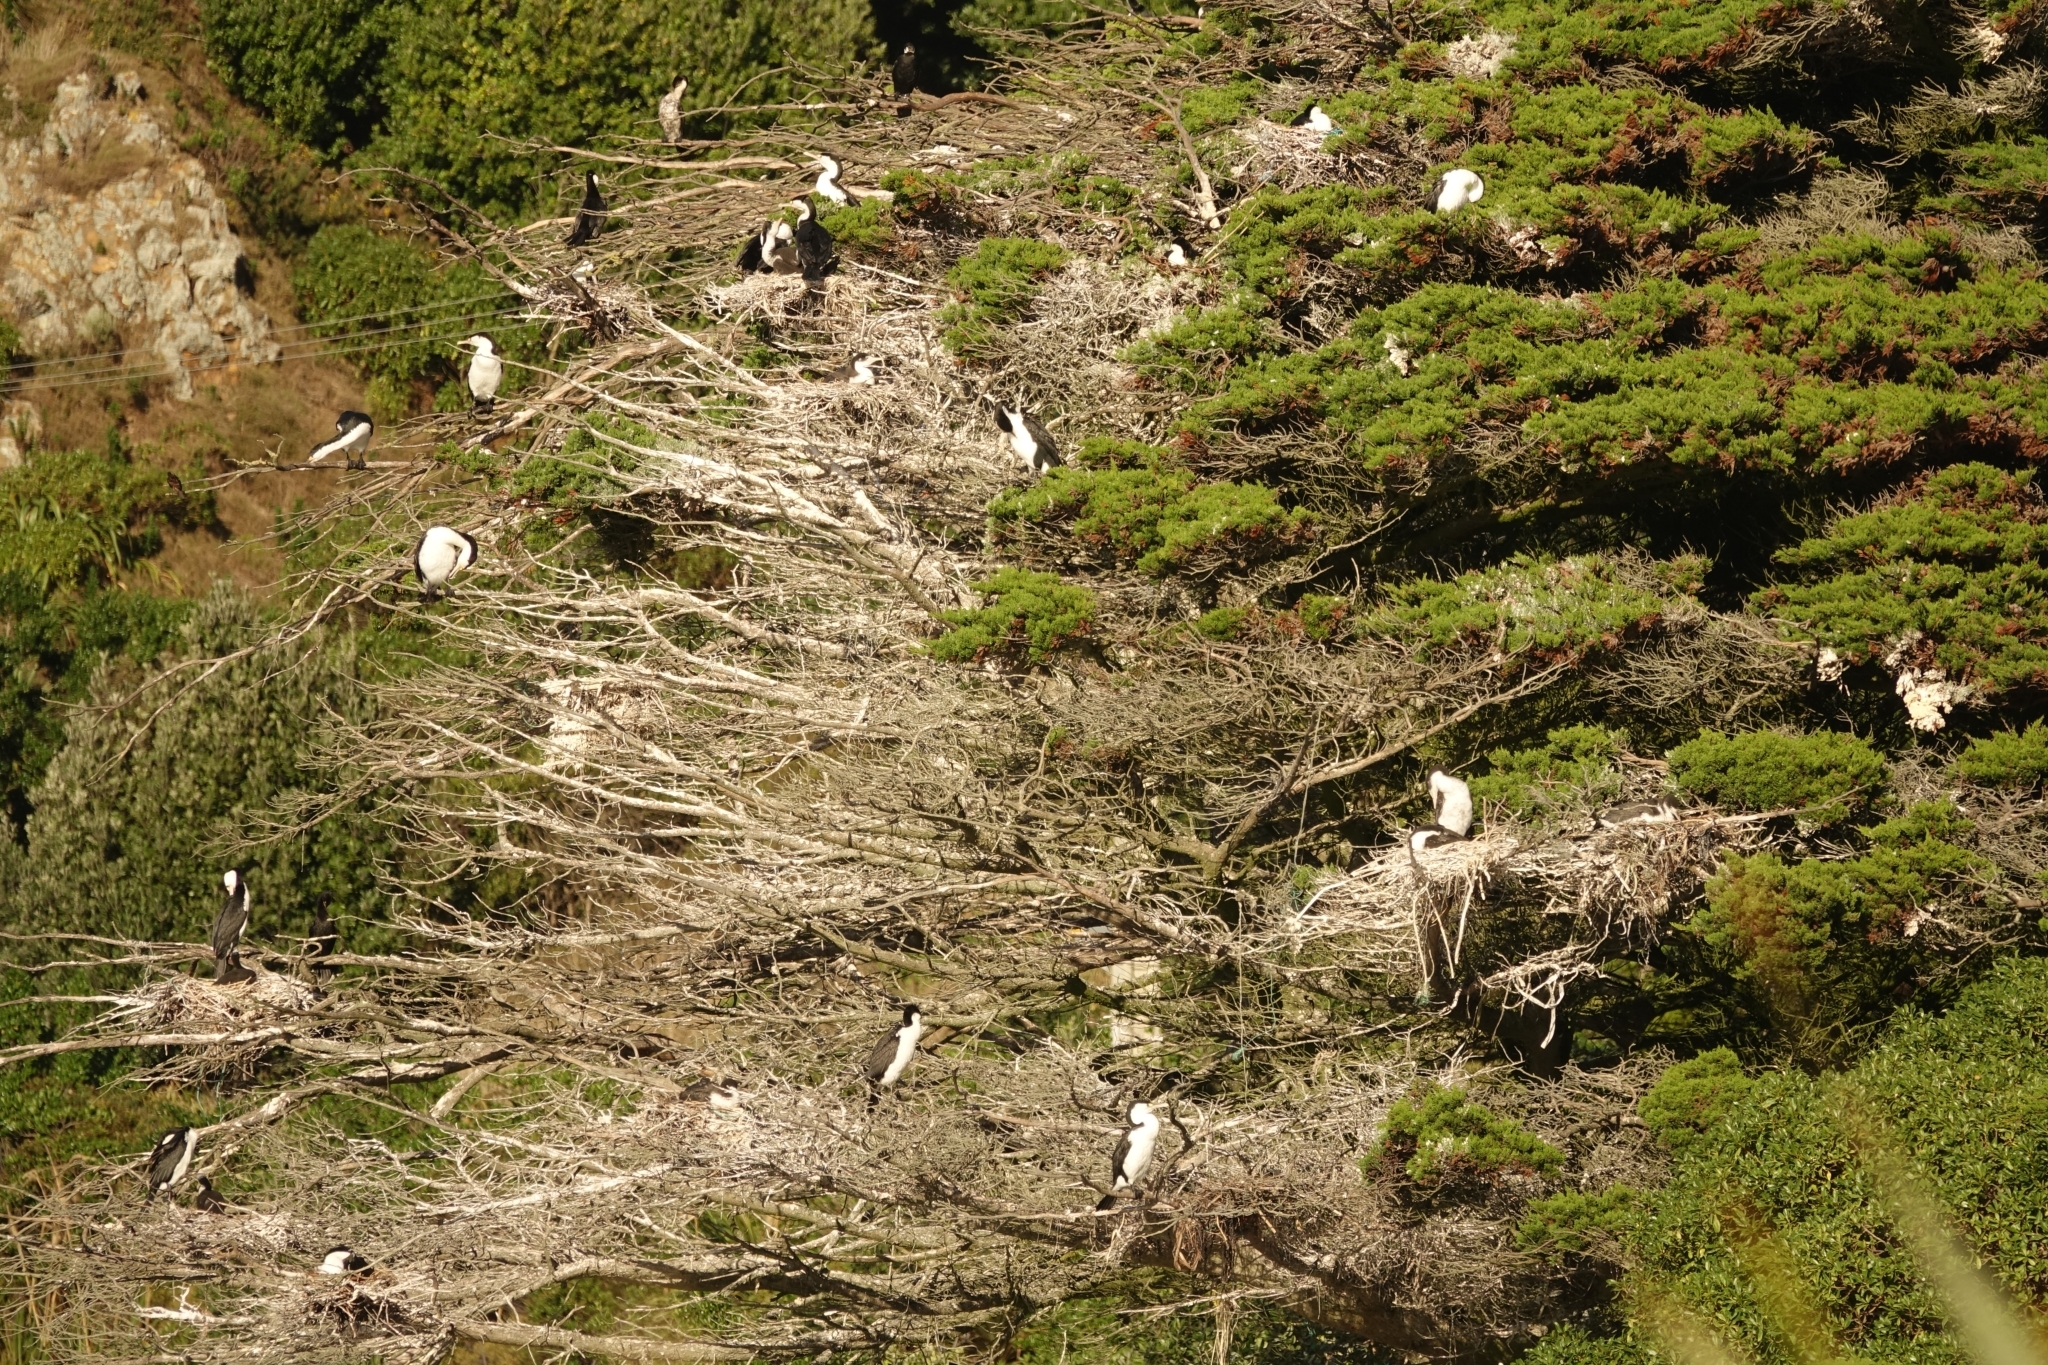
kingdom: Animalia
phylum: Chordata
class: Aves
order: Suliformes
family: Phalacrocoracidae
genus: Phalacrocorax
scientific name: Phalacrocorax varius
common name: Pied cormorant
